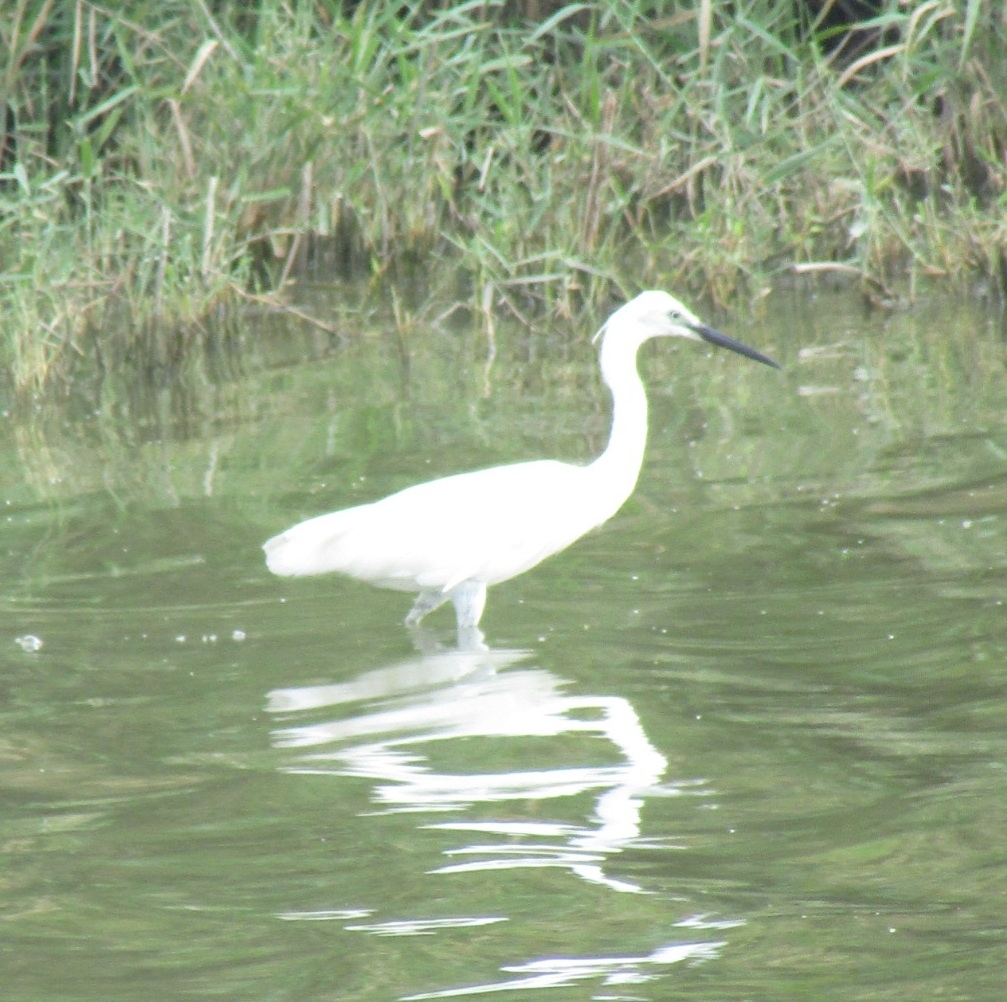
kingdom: Animalia
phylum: Chordata
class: Aves
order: Pelecaniformes
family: Ardeidae
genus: Egretta
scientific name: Egretta garzetta
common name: Little egret
